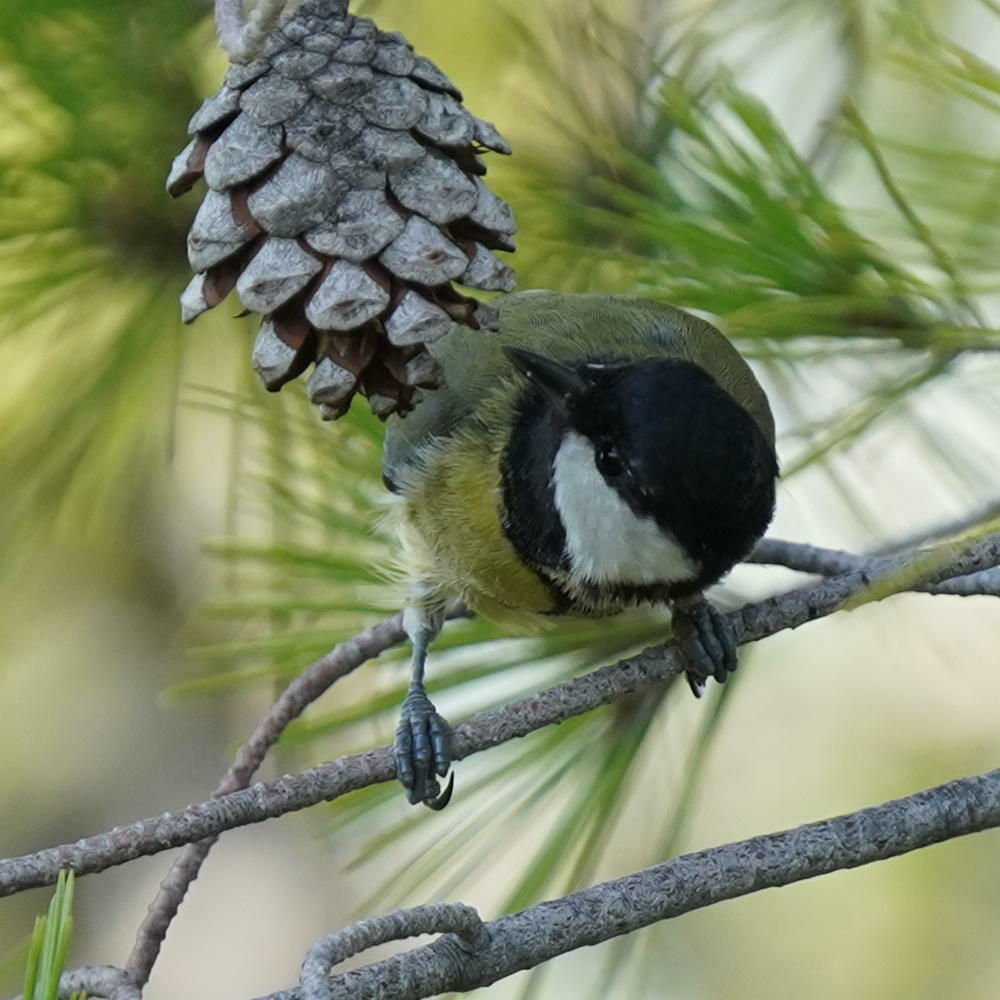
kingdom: Animalia
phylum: Chordata
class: Aves
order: Passeriformes
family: Paridae
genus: Parus
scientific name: Parus major
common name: Great tit
